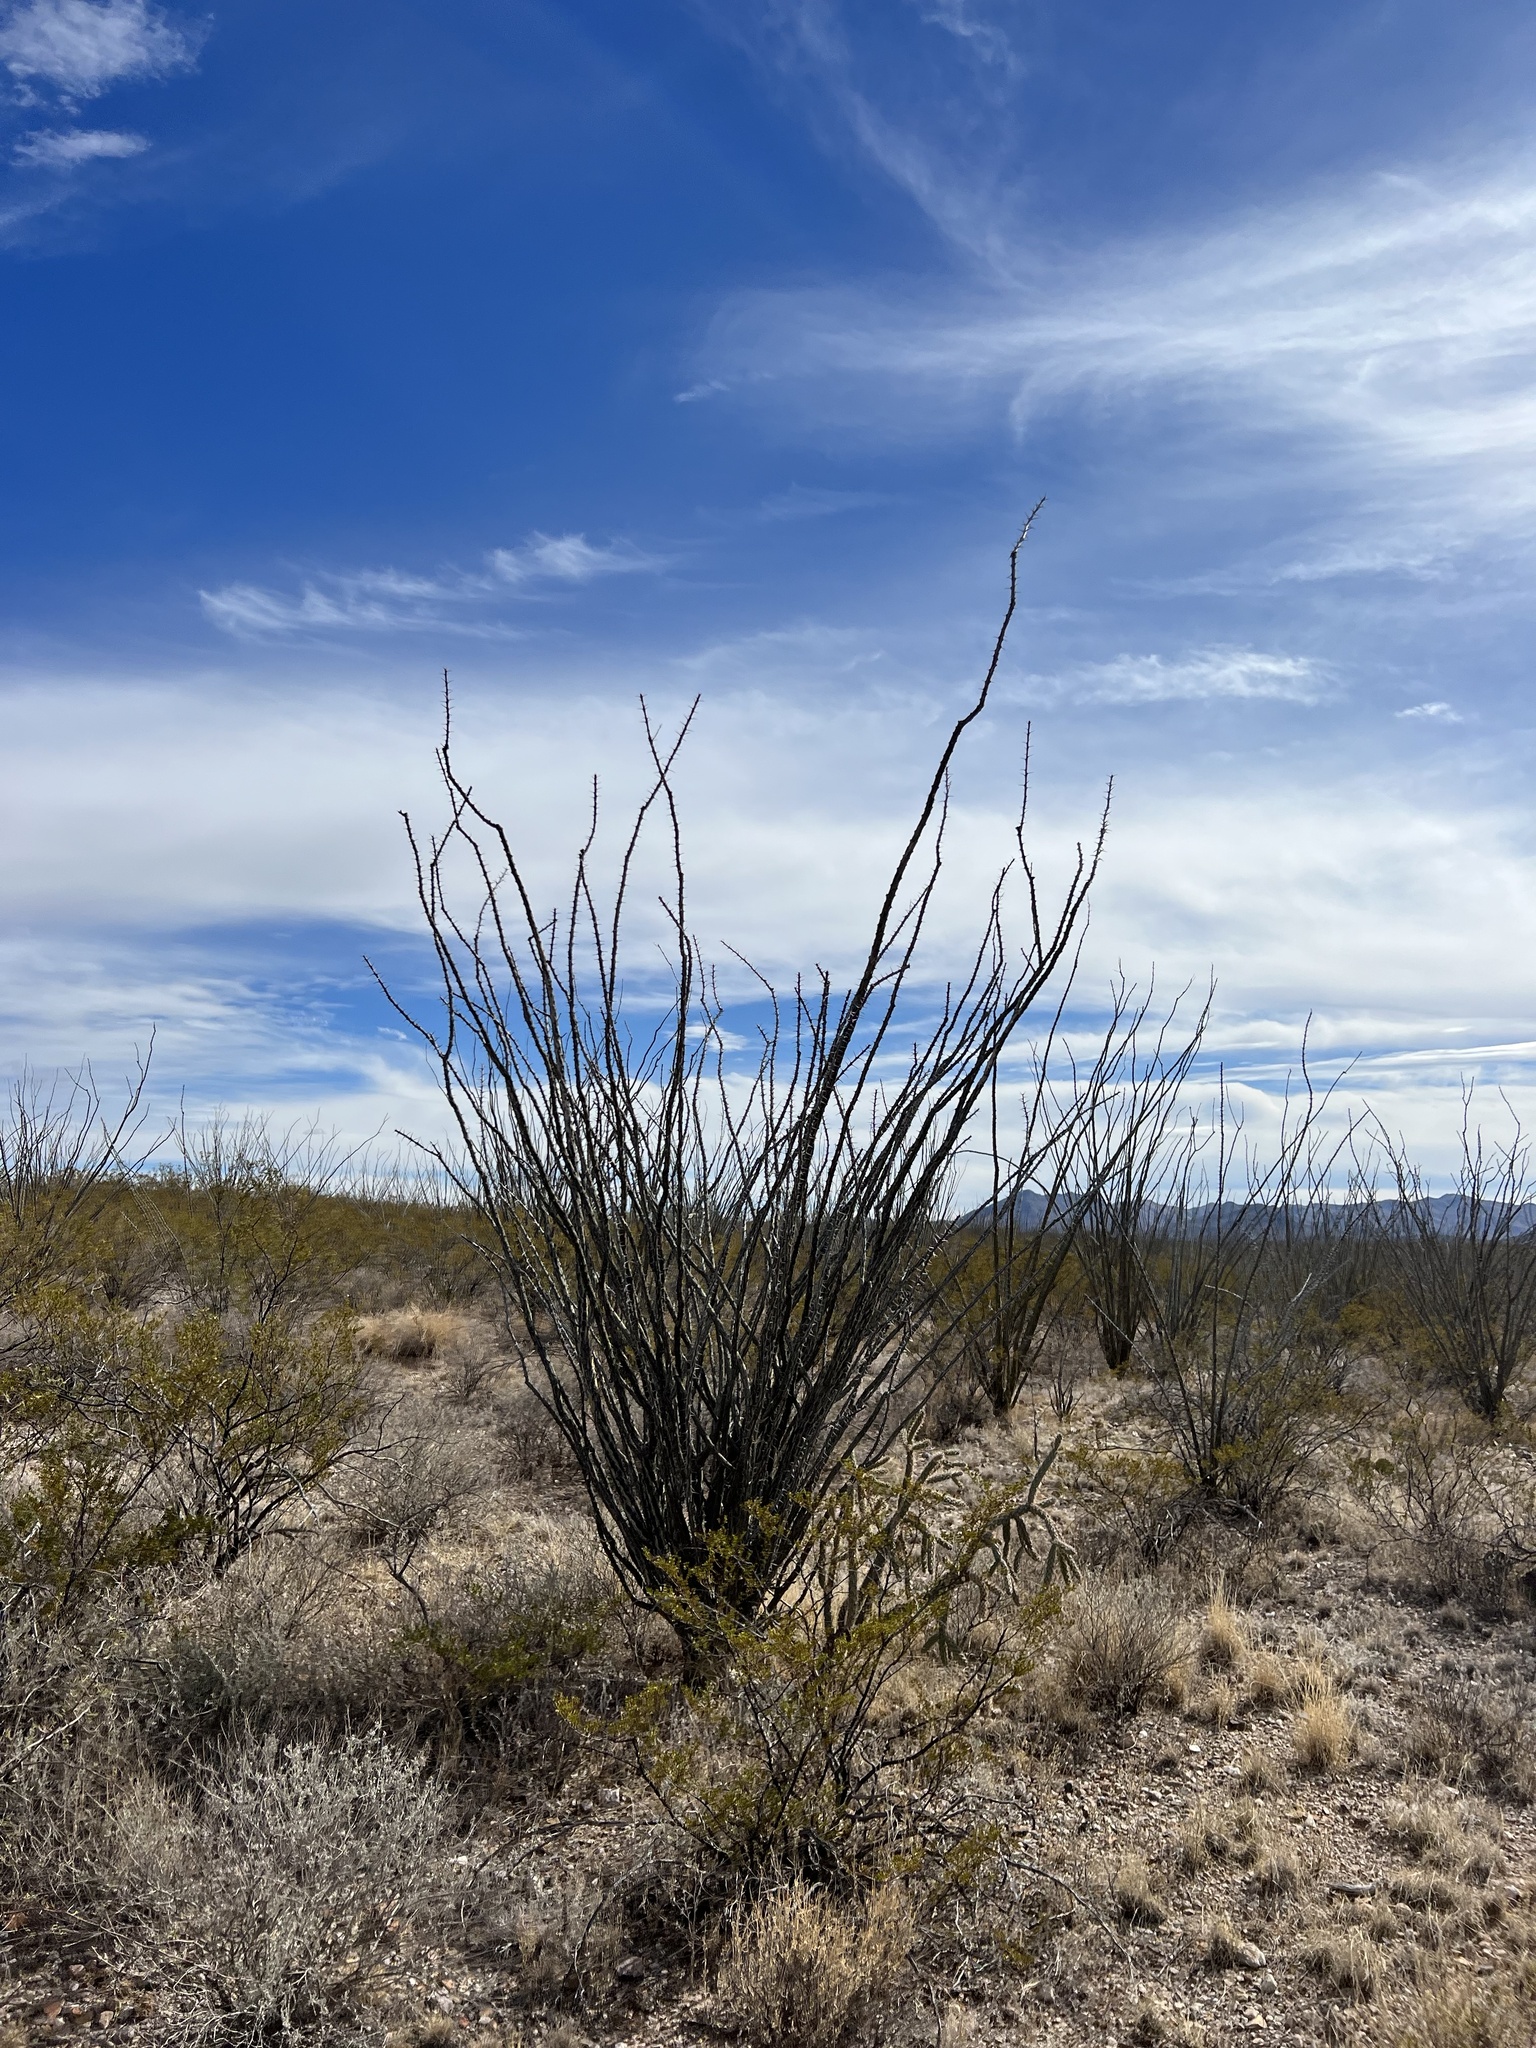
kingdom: Plantae
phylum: Tracheophyta
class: Magnoliopsida
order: Ericales
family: Fouquieriaceae
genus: Fouquieria
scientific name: Fouquieria splendens
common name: Vine-cactus
